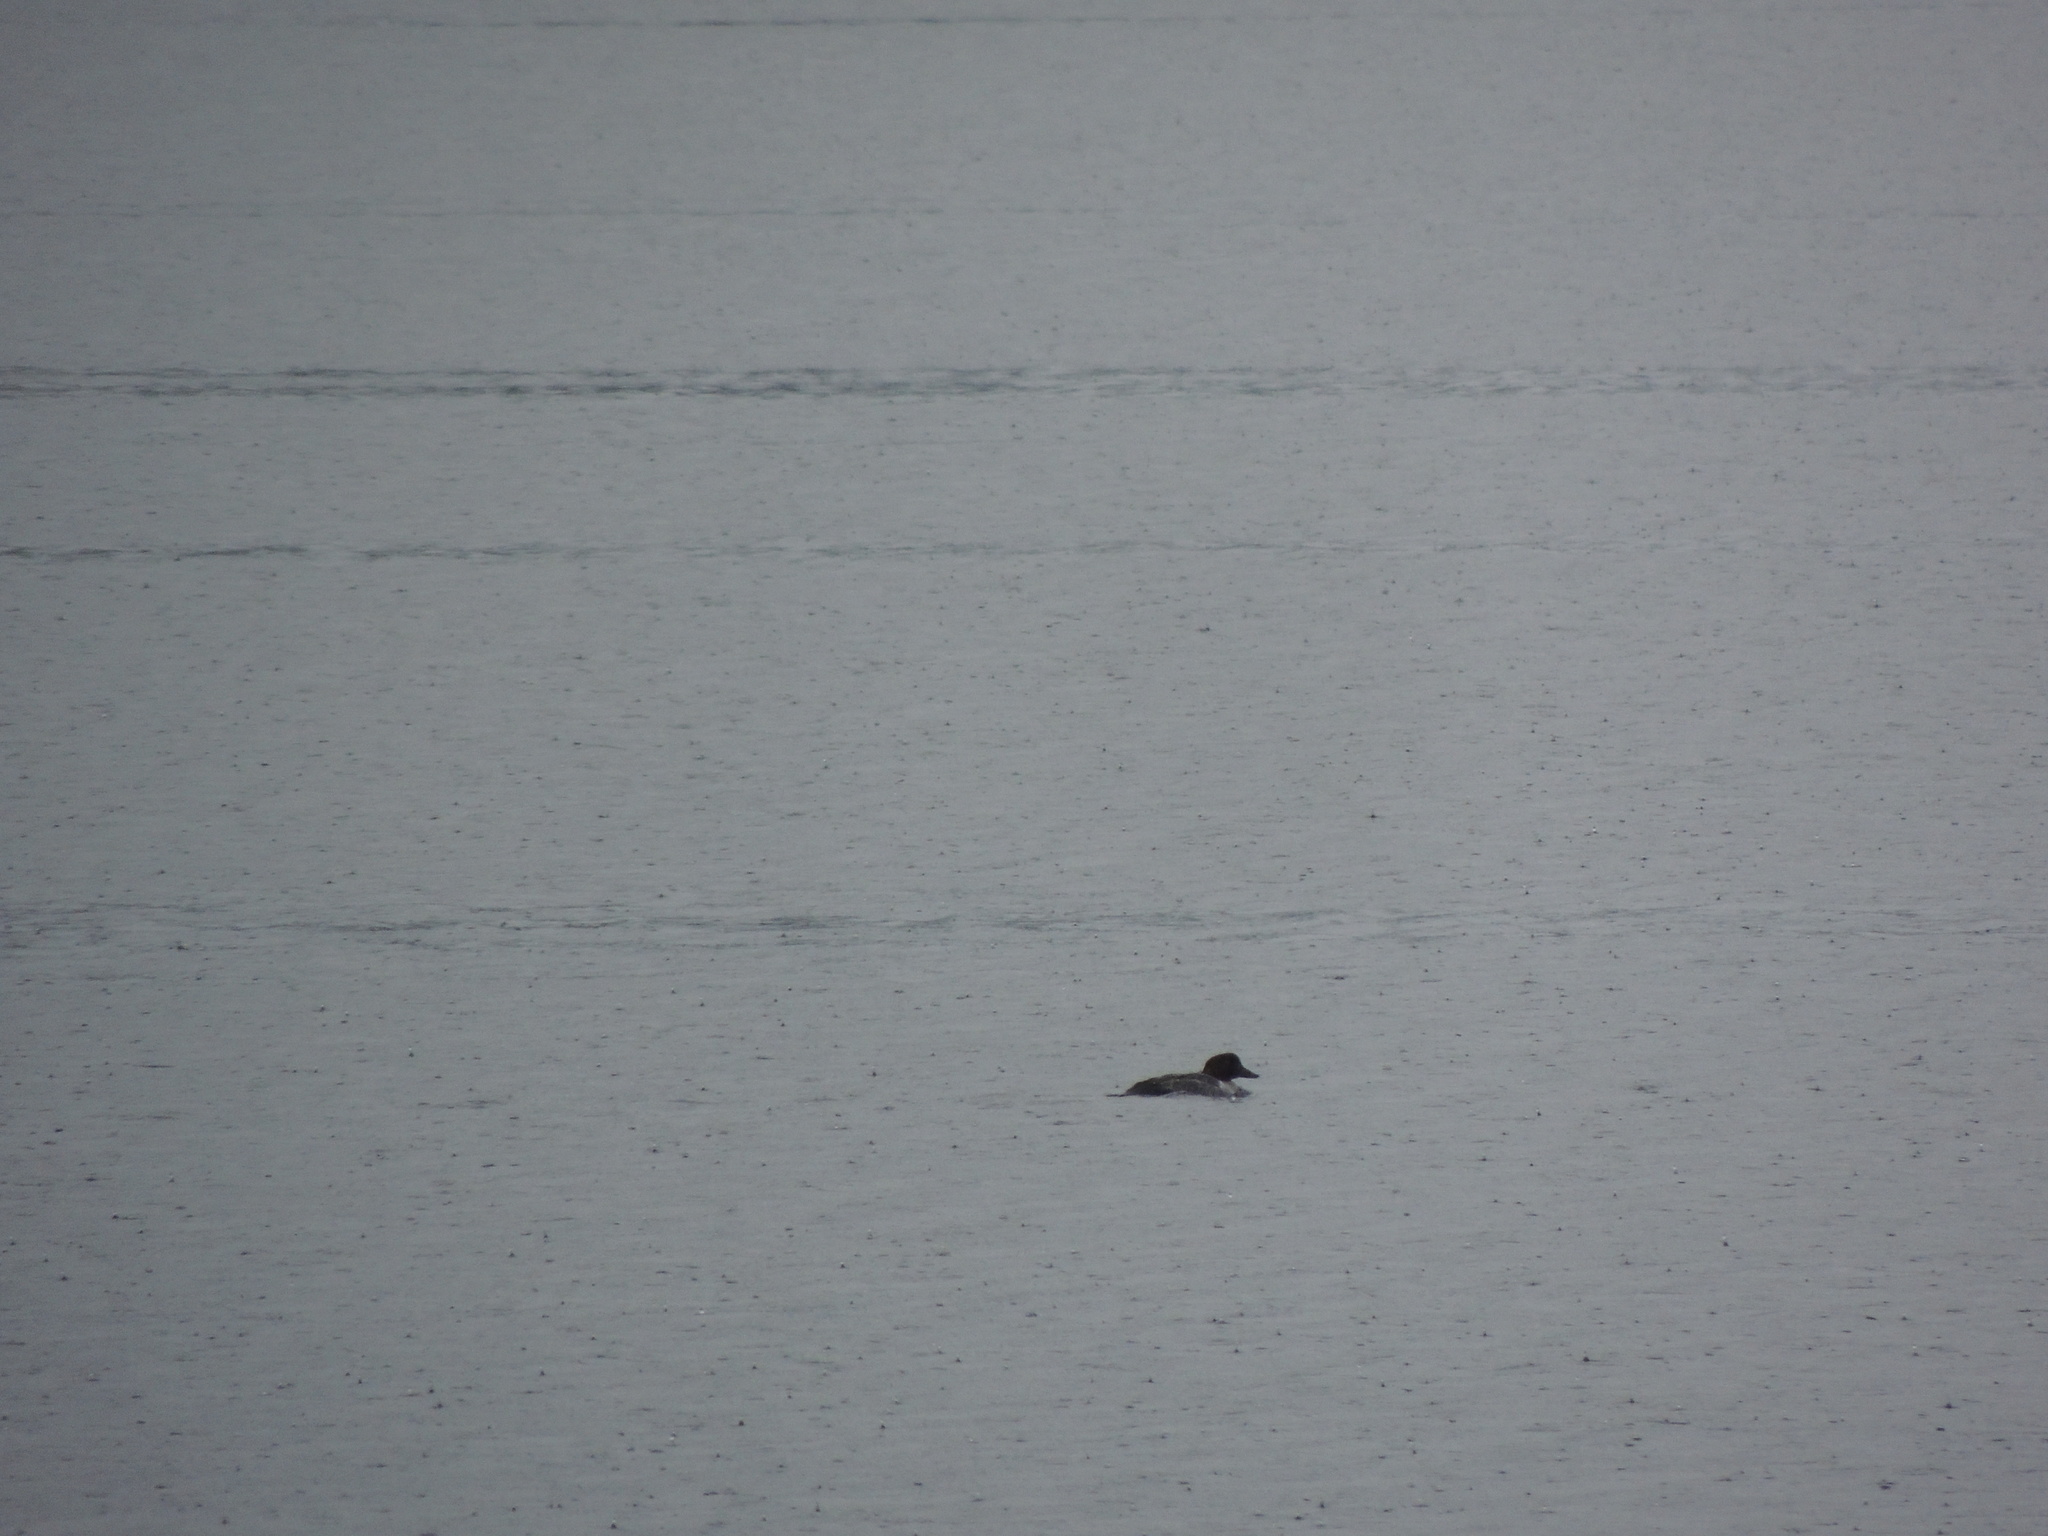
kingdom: Animalia
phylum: Chordata
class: Aves
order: Anseriformes
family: Anatidae
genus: Bucephala
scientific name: Bucephala clangula
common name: Common goldeneye
